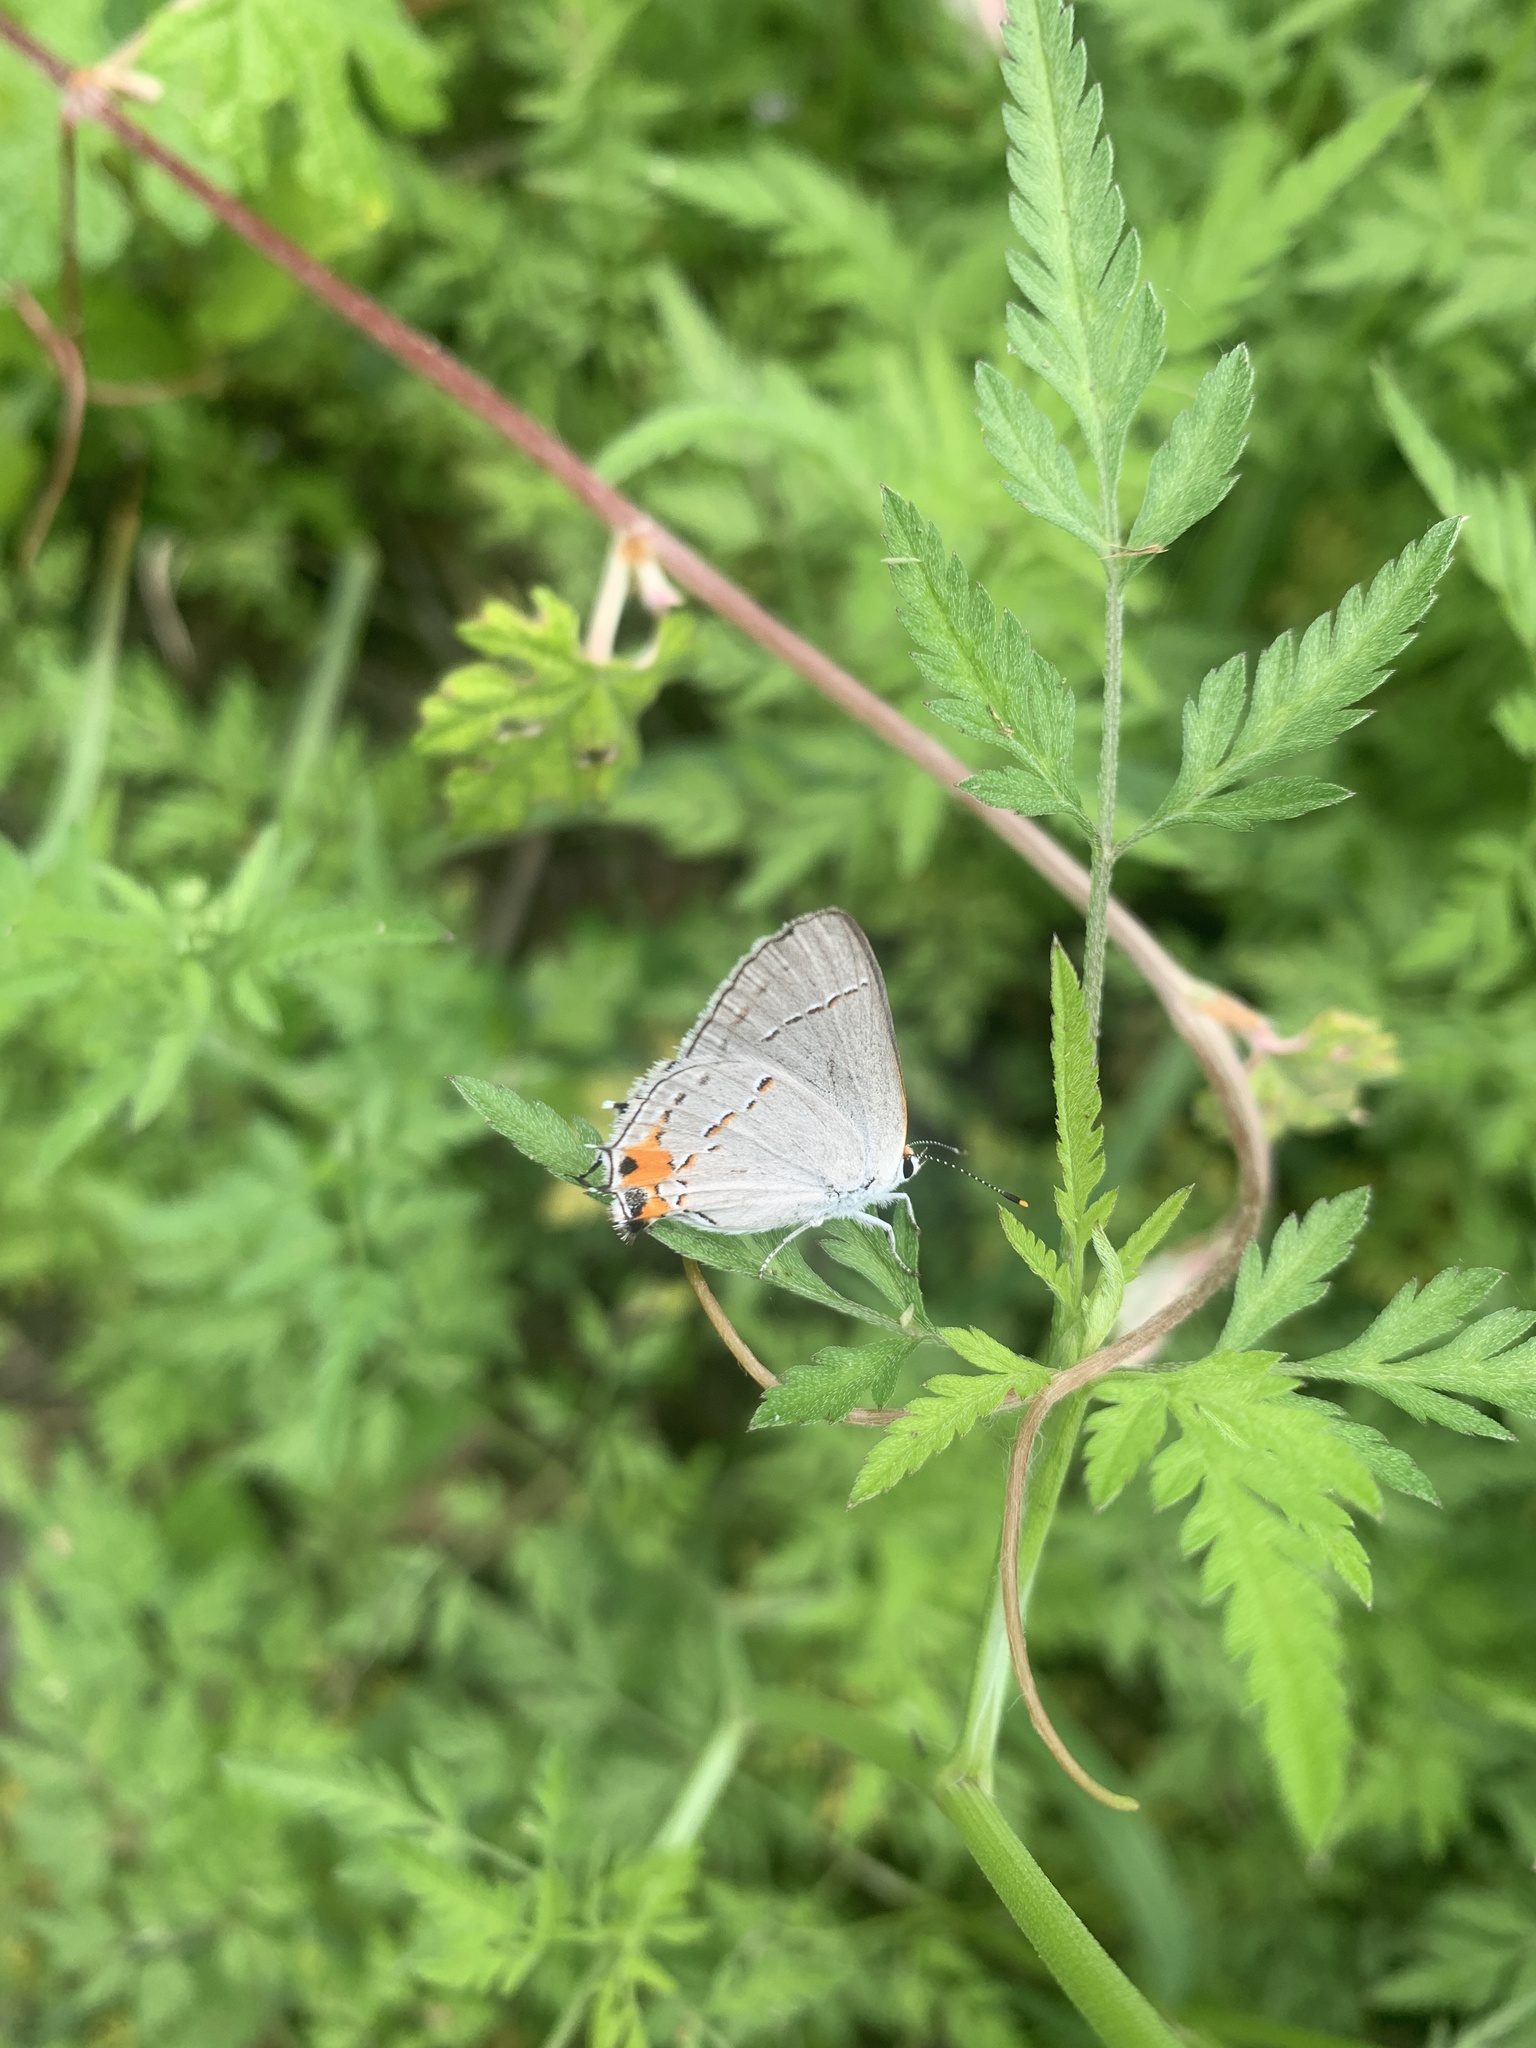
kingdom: Animalia
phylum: Arthropoda
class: Insecta
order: Lepidoptera
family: Lycaenidae
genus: Strymon
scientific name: Strymon melinus
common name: Gray hairstreak
